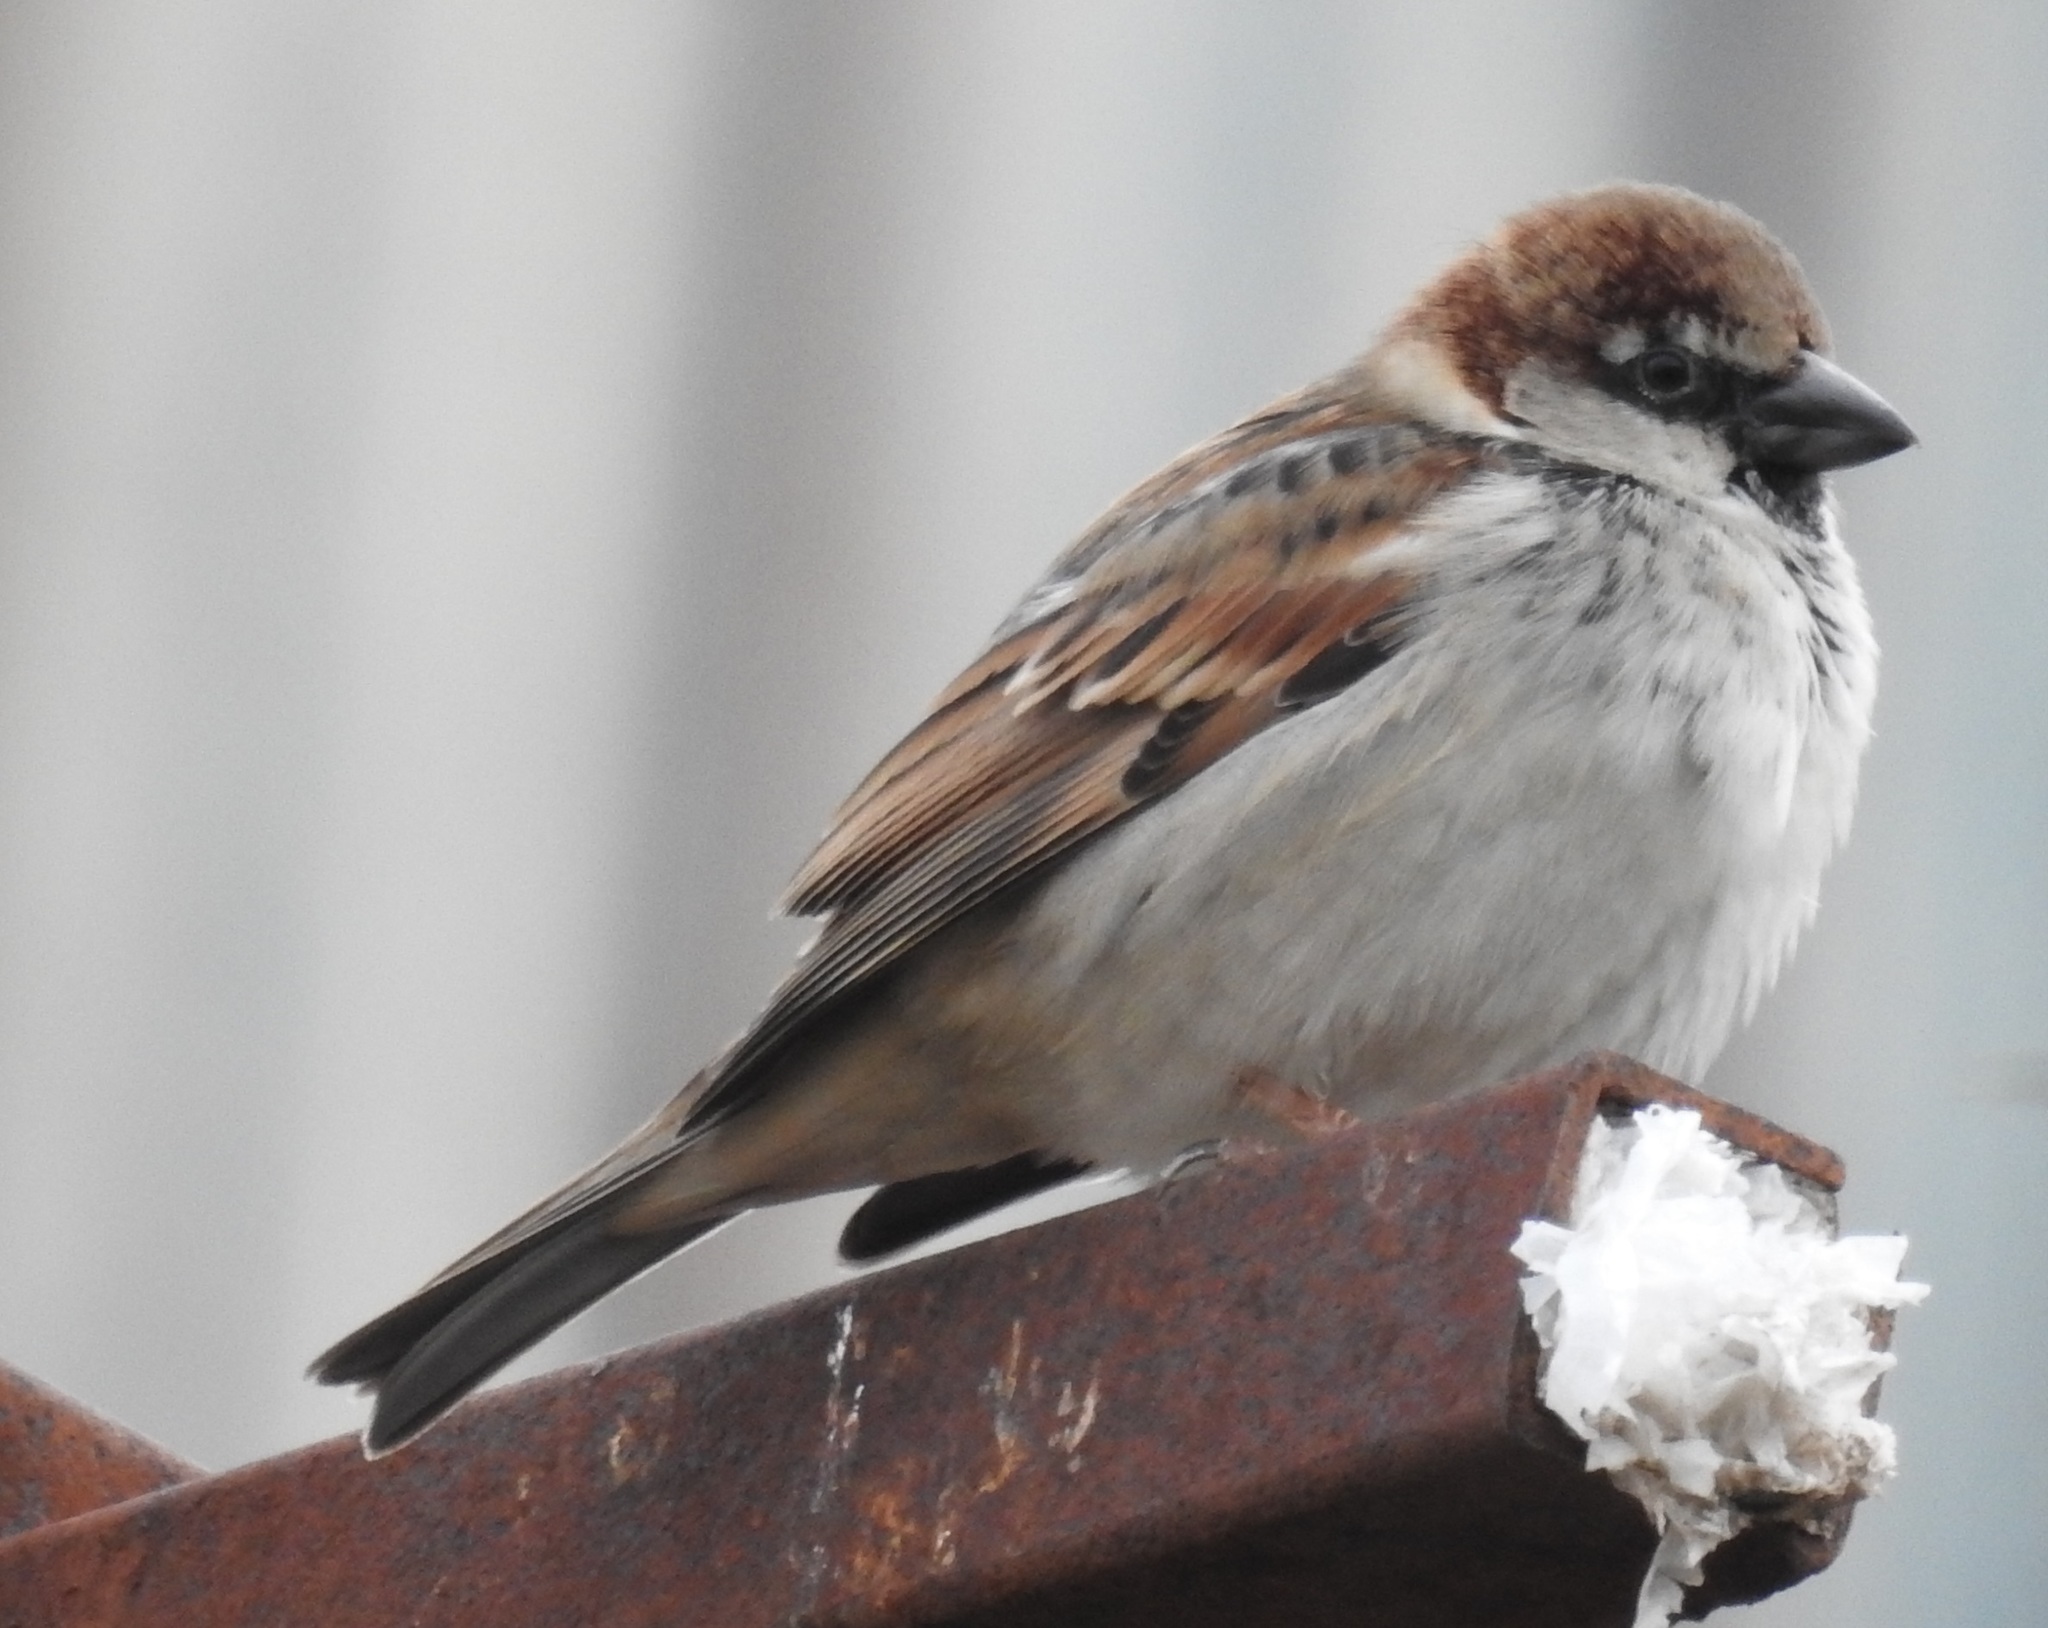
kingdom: Animalia
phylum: Chordata
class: Aves
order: Passeriformes
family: Passeridae
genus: Passer
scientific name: Passer domesticus
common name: House sparrow
